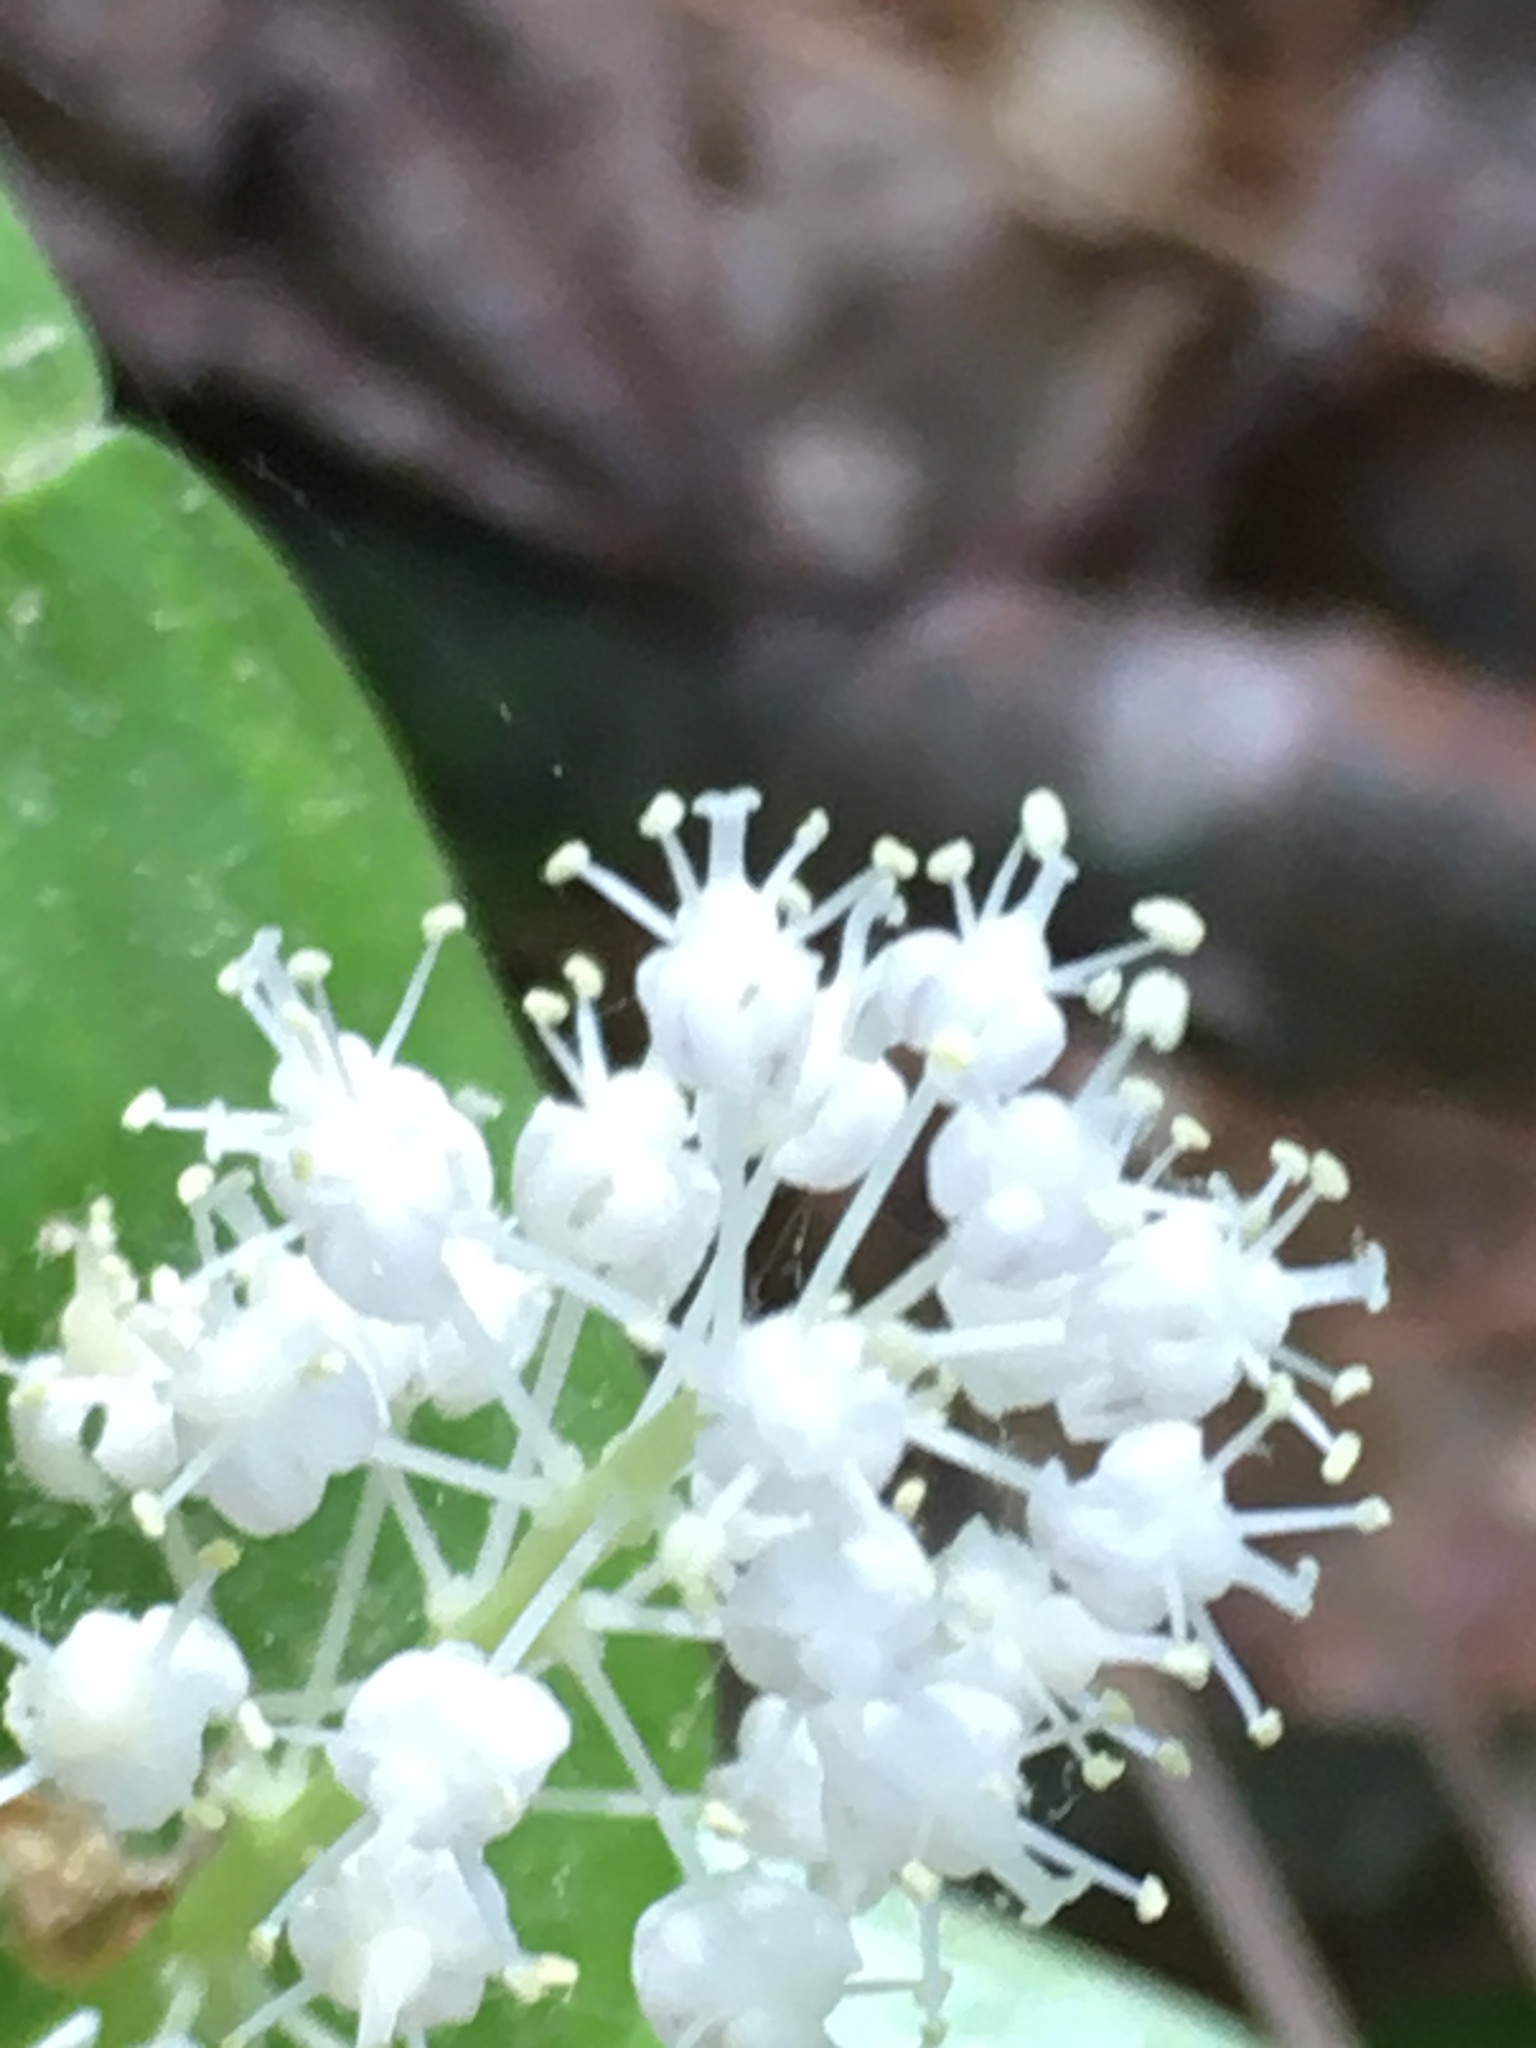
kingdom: Plantae
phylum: Tracheophyta
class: Liliopsida
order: Asparagales
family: Asparagaceae
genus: Maianthemum
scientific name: Maianthemum canadense
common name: False lily-of-the-valley
